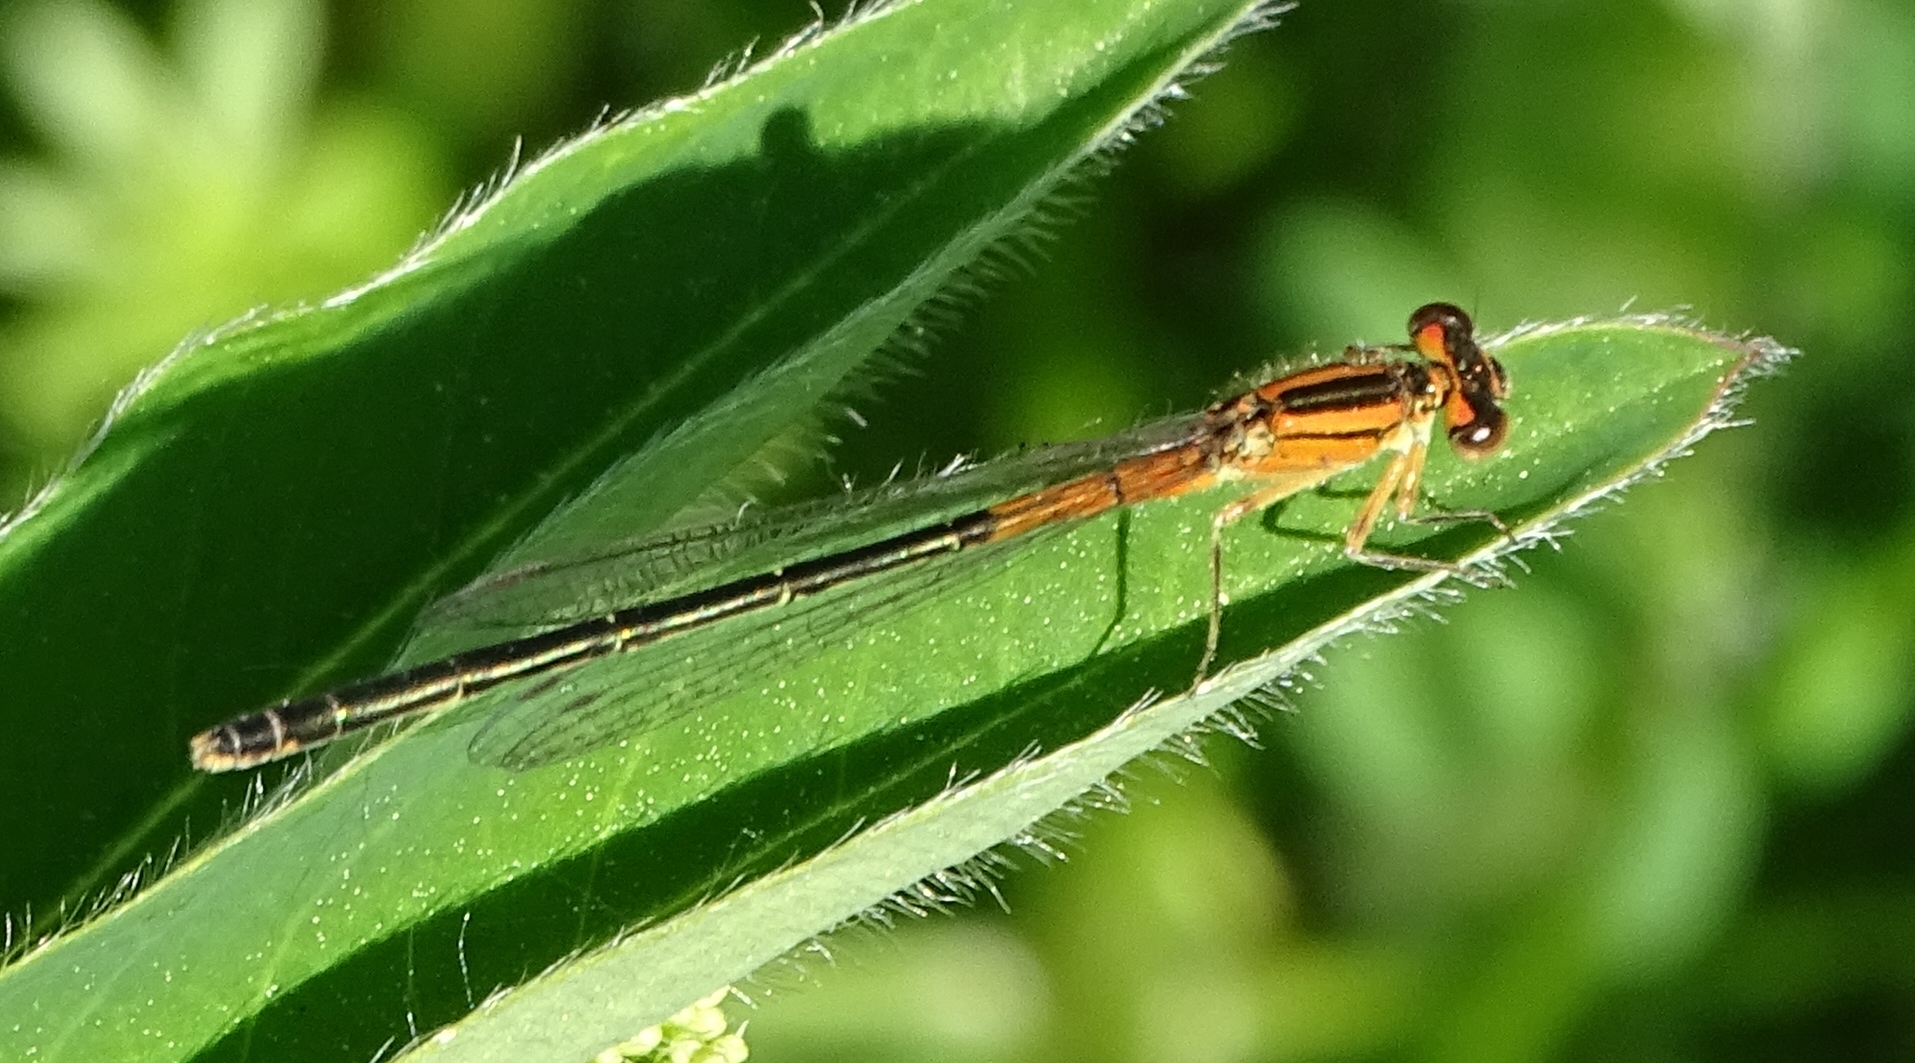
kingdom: Animalia
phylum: Arthropoda
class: Insecta
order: Odonata
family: Coenagrionidae
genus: Ischnura
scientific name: Ischnura verticalis
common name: Eastern forktail
